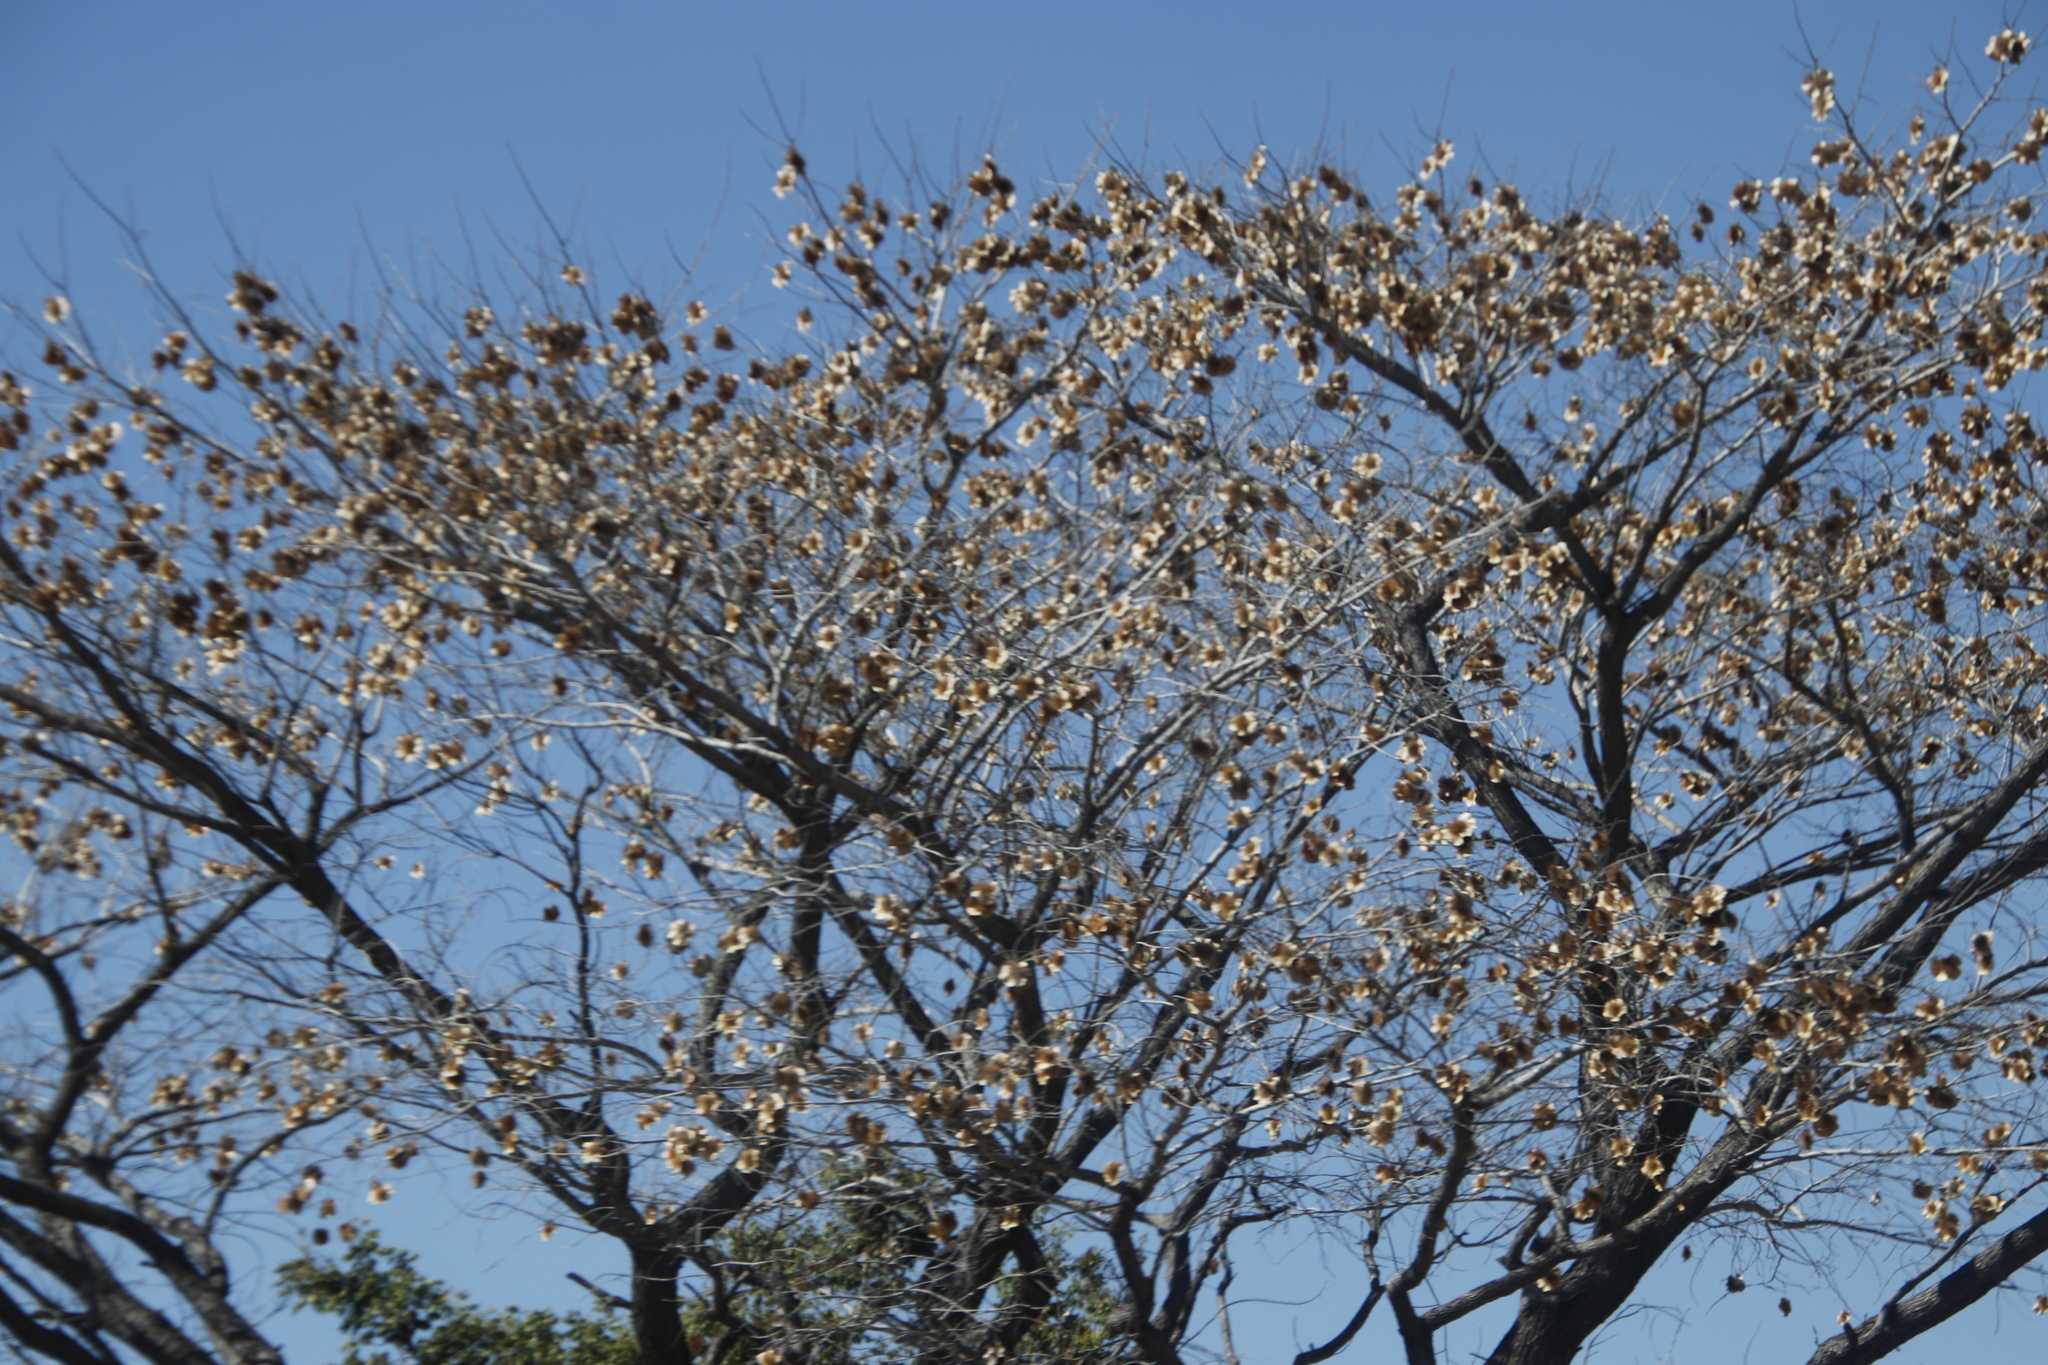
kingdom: Plantae
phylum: Tracheophyta
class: Magnoliopsida
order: Fabales
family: Fabaceae
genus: Pterocarpus
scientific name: Pterocarpus angolensis
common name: Bloodwood tree
